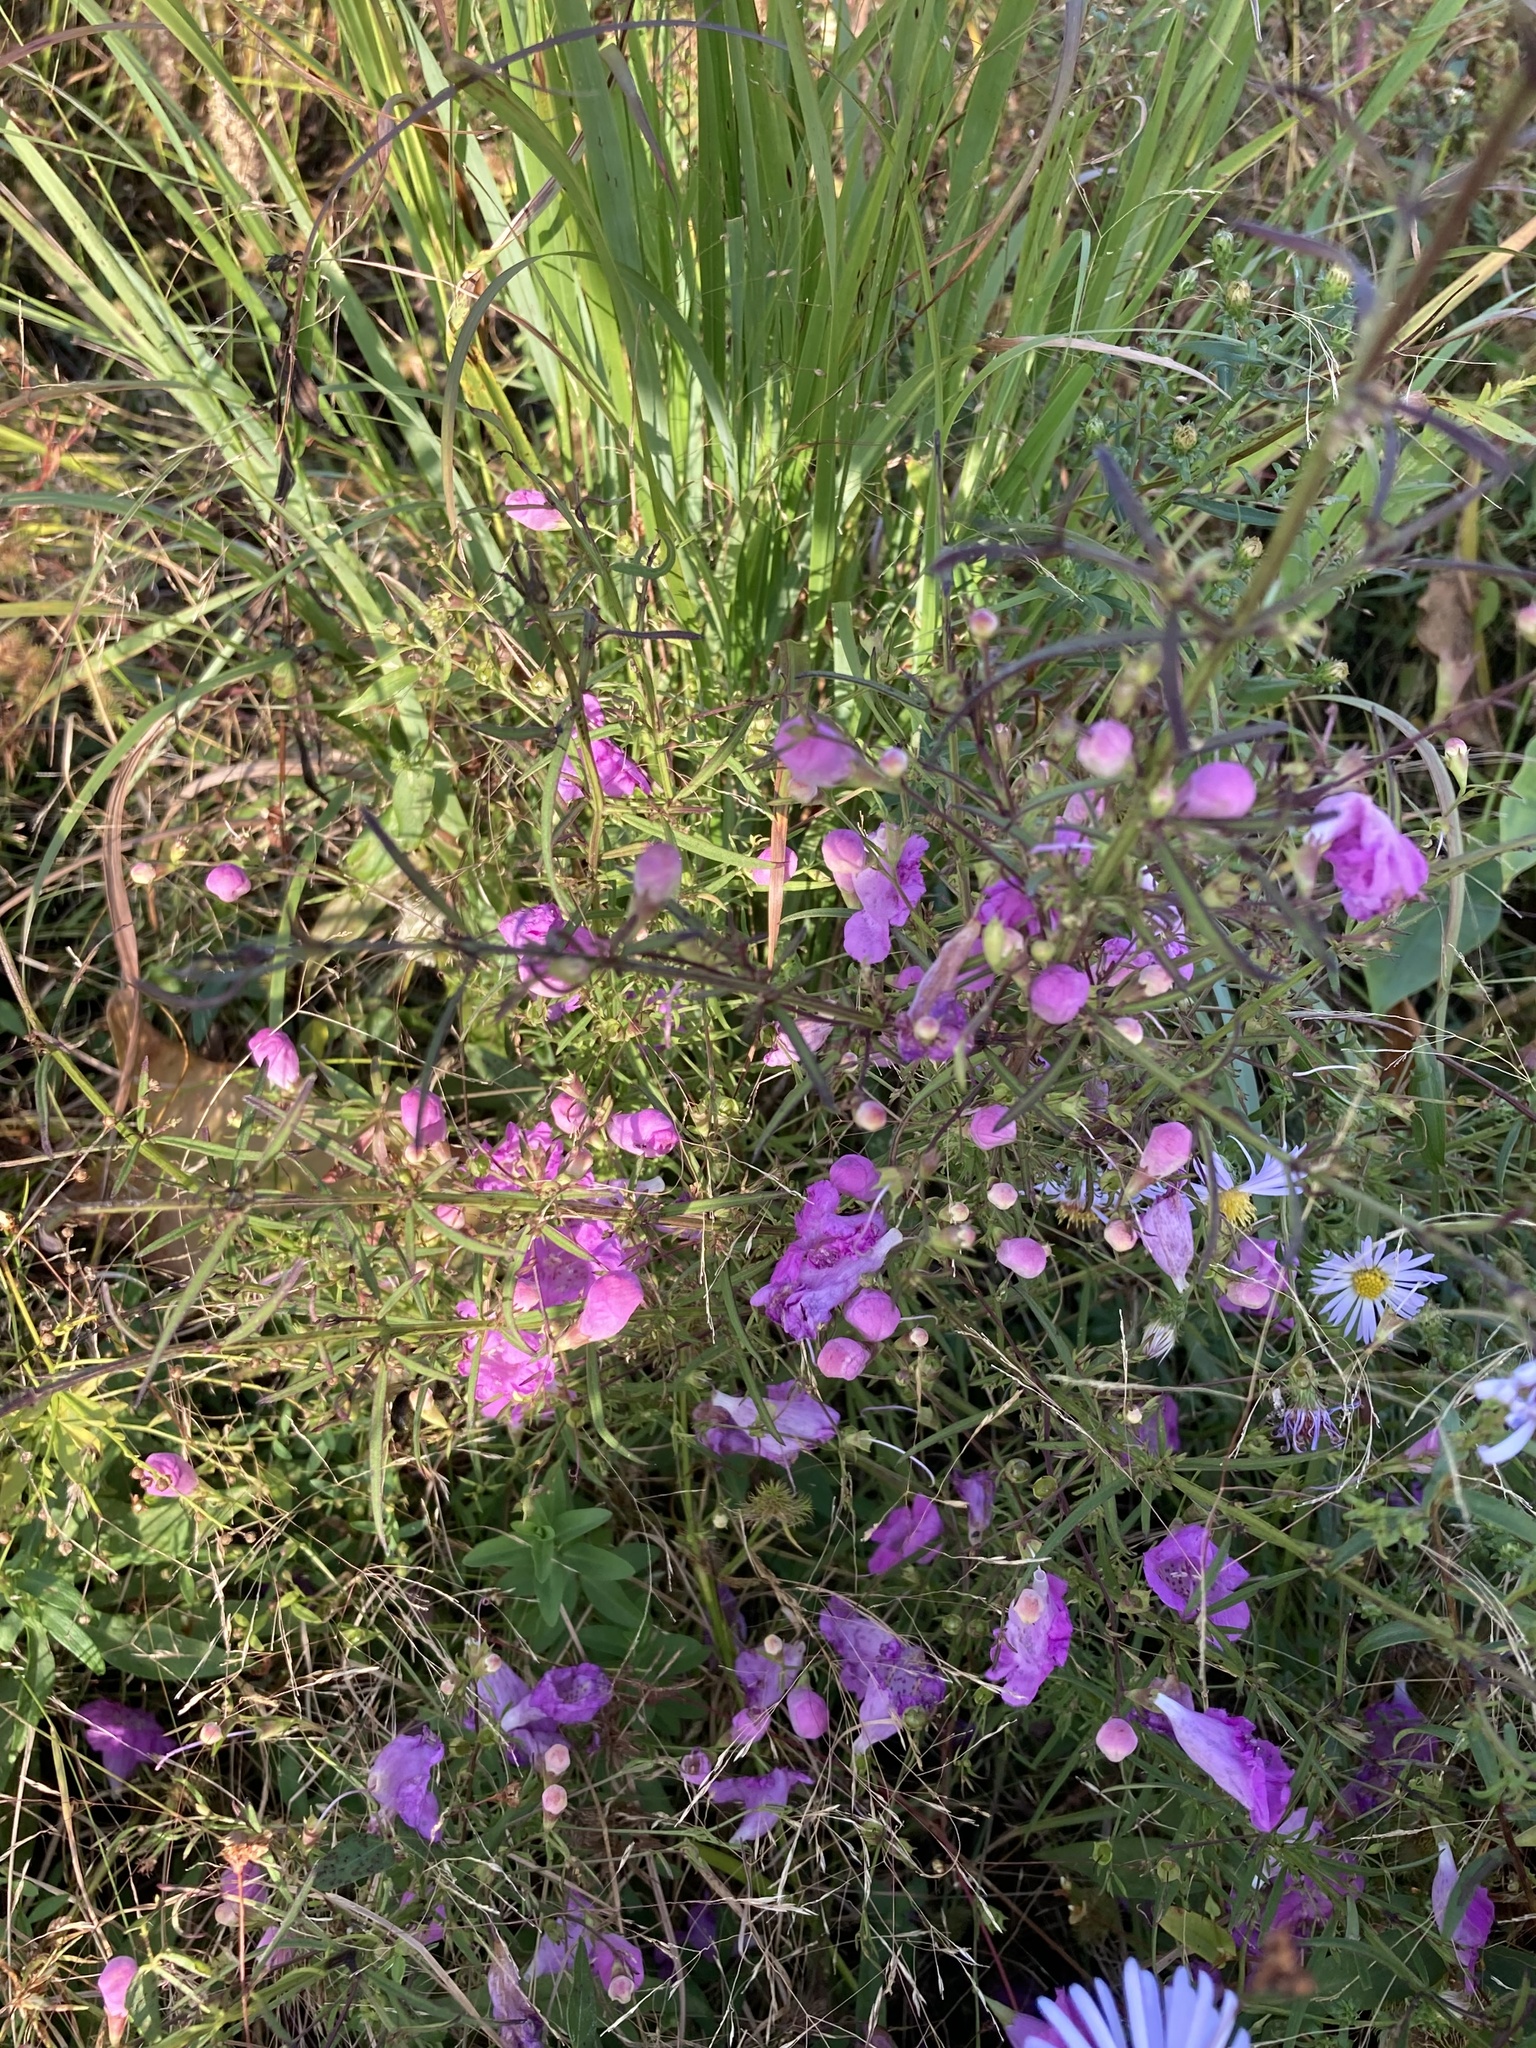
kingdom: Plantae
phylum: Tracheophyta
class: Magnoliopsida
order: Lamiales
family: Orobanchaceae
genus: Agalinis
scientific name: Agalinis purpurea
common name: Purple false foxglove
